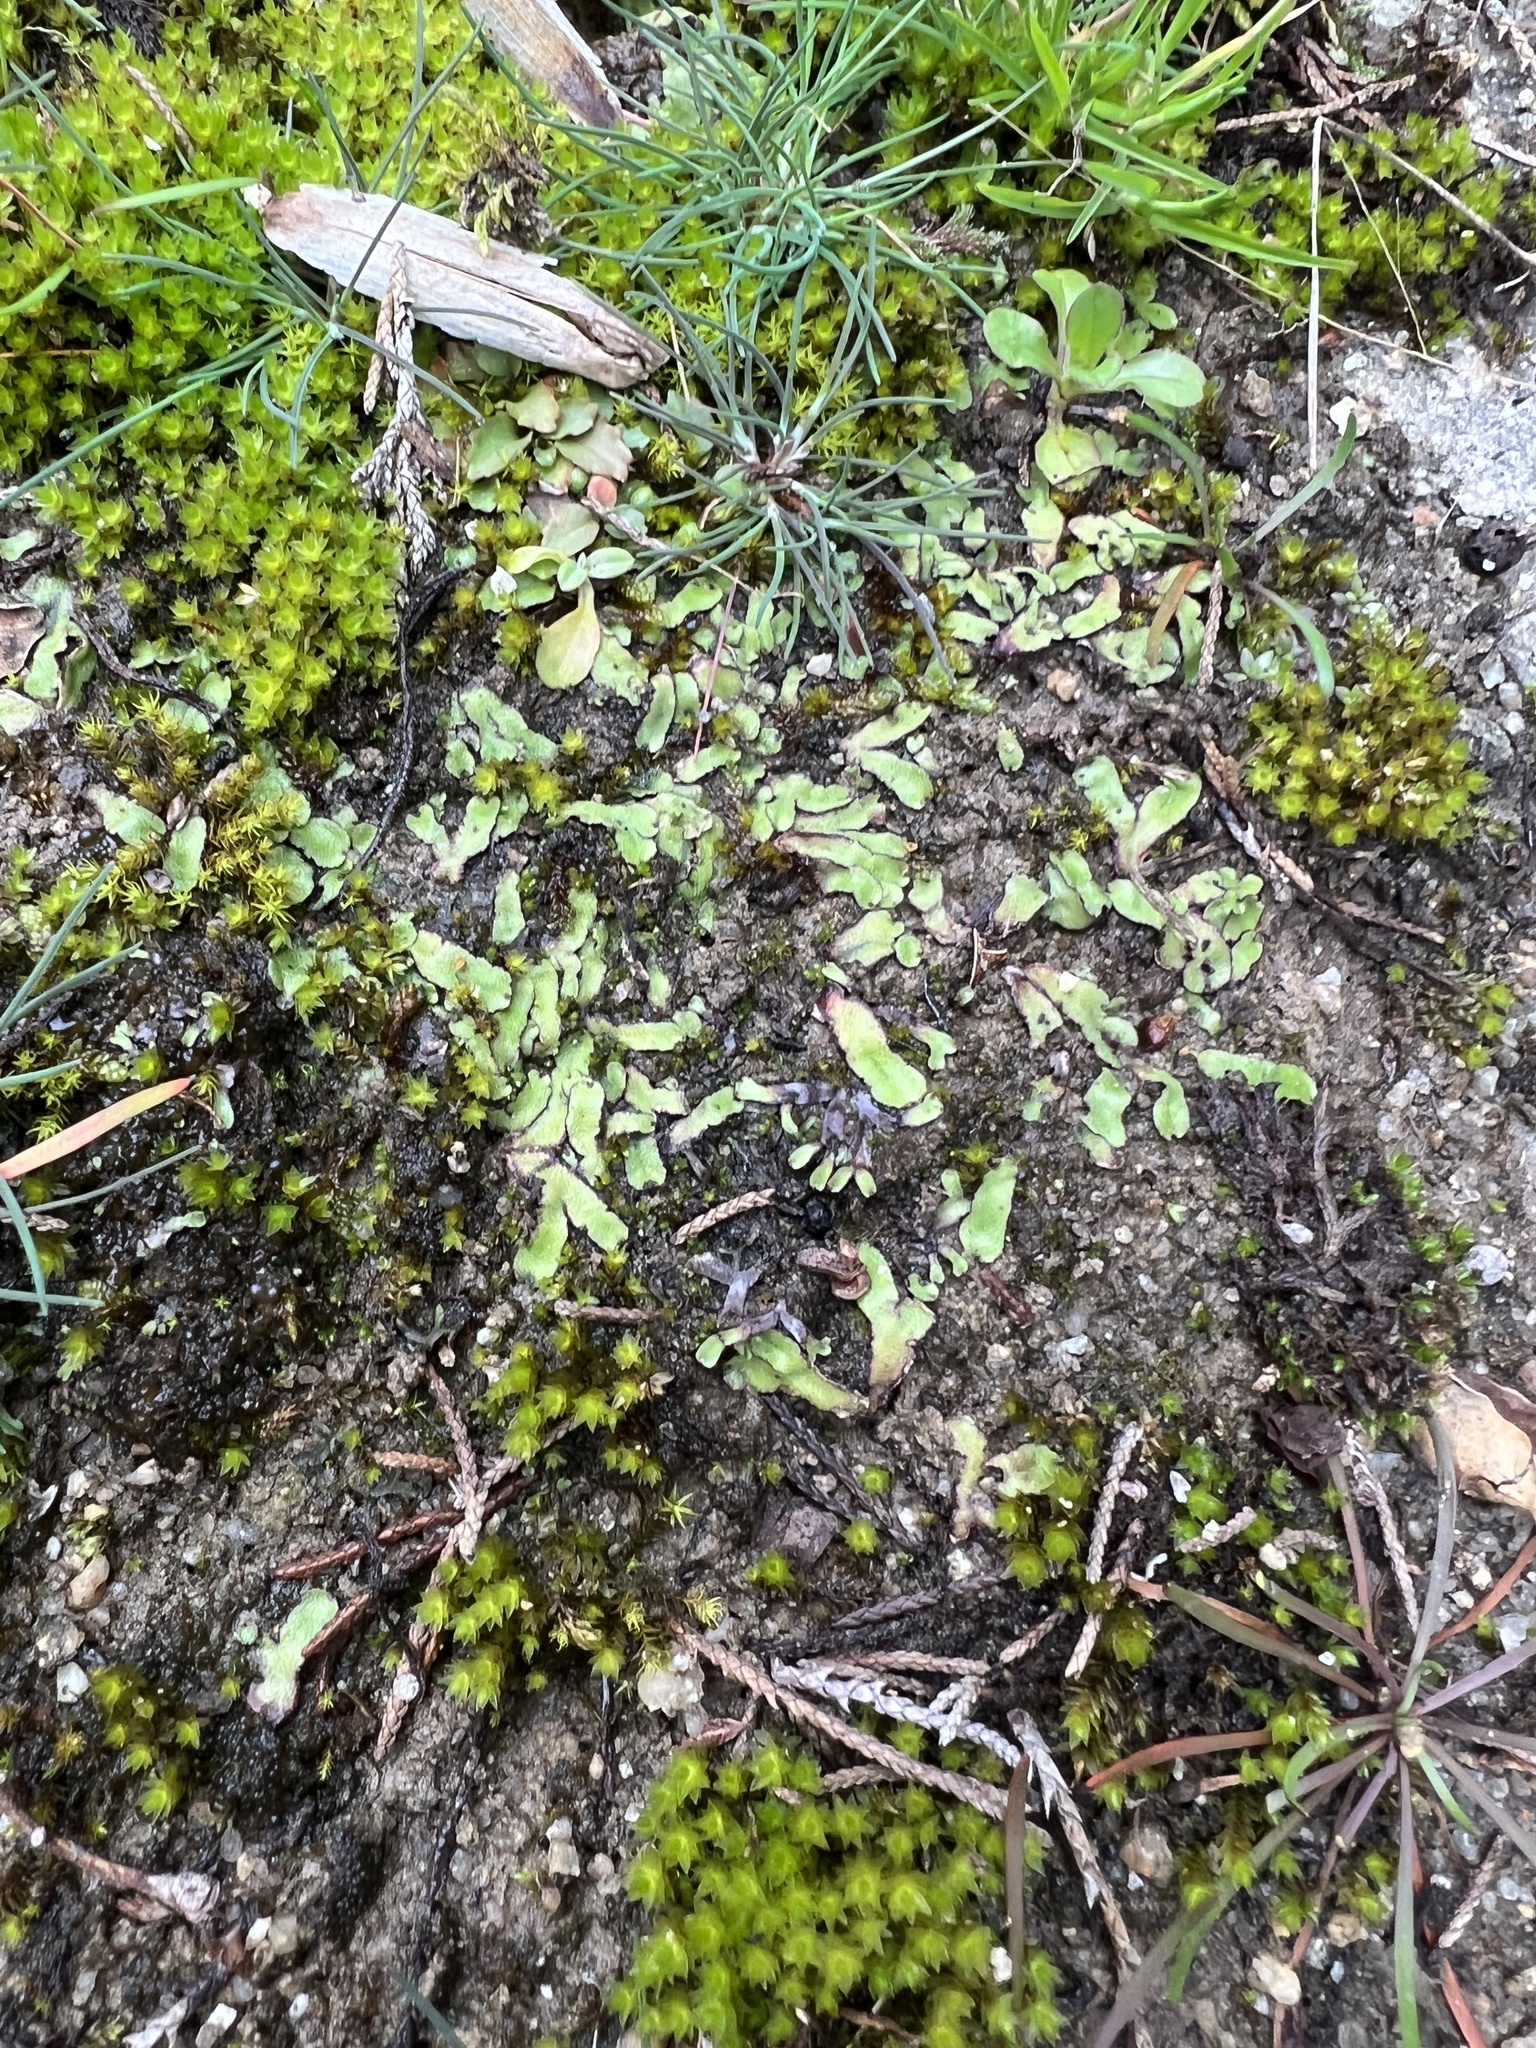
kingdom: Plantae
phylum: Marchantiophyta
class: Marchantiopsida
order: Marchantiales
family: Aytoniaceae
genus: Reboulia
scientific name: Reboulia hemisphaerica
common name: Purple-margined liverwort
